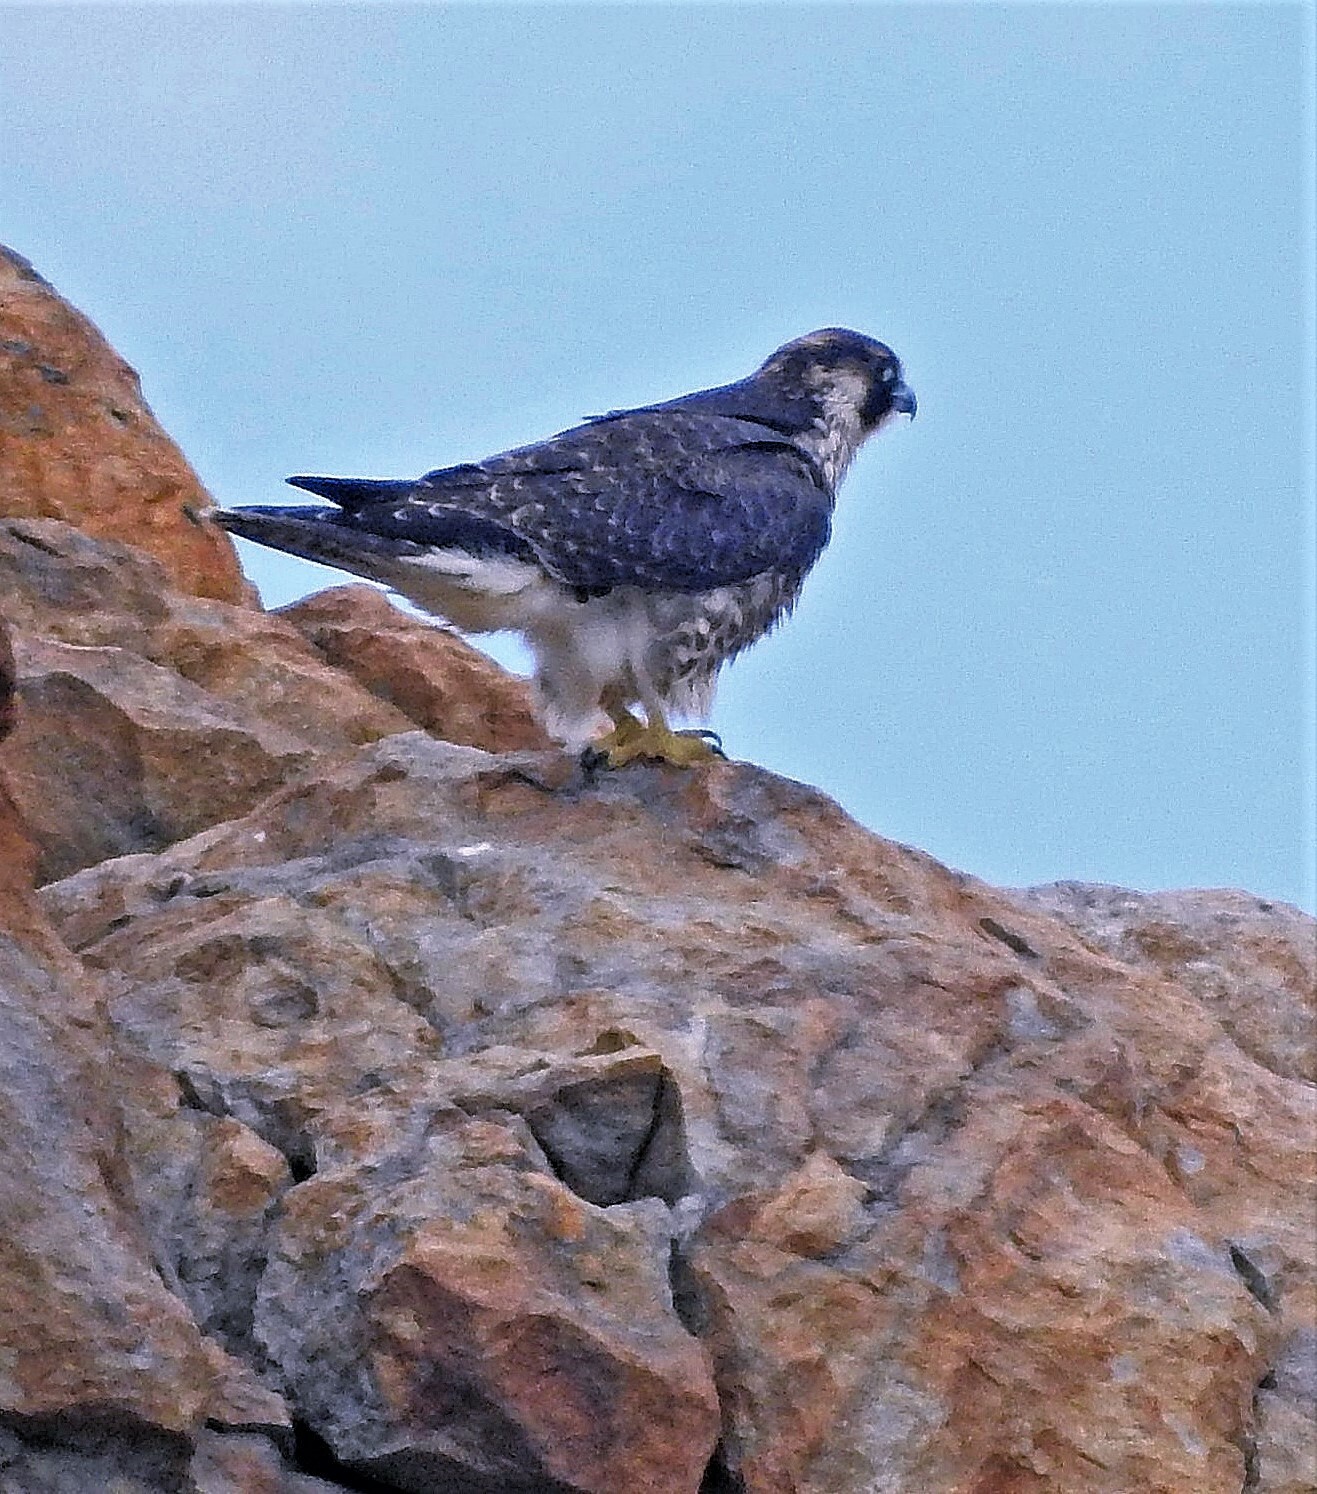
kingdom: Animalia
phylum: Chordata
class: Aves
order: Falconiformes
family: Falconidae
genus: Falco
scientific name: Falco peregrinus
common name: Peregrine falcon
